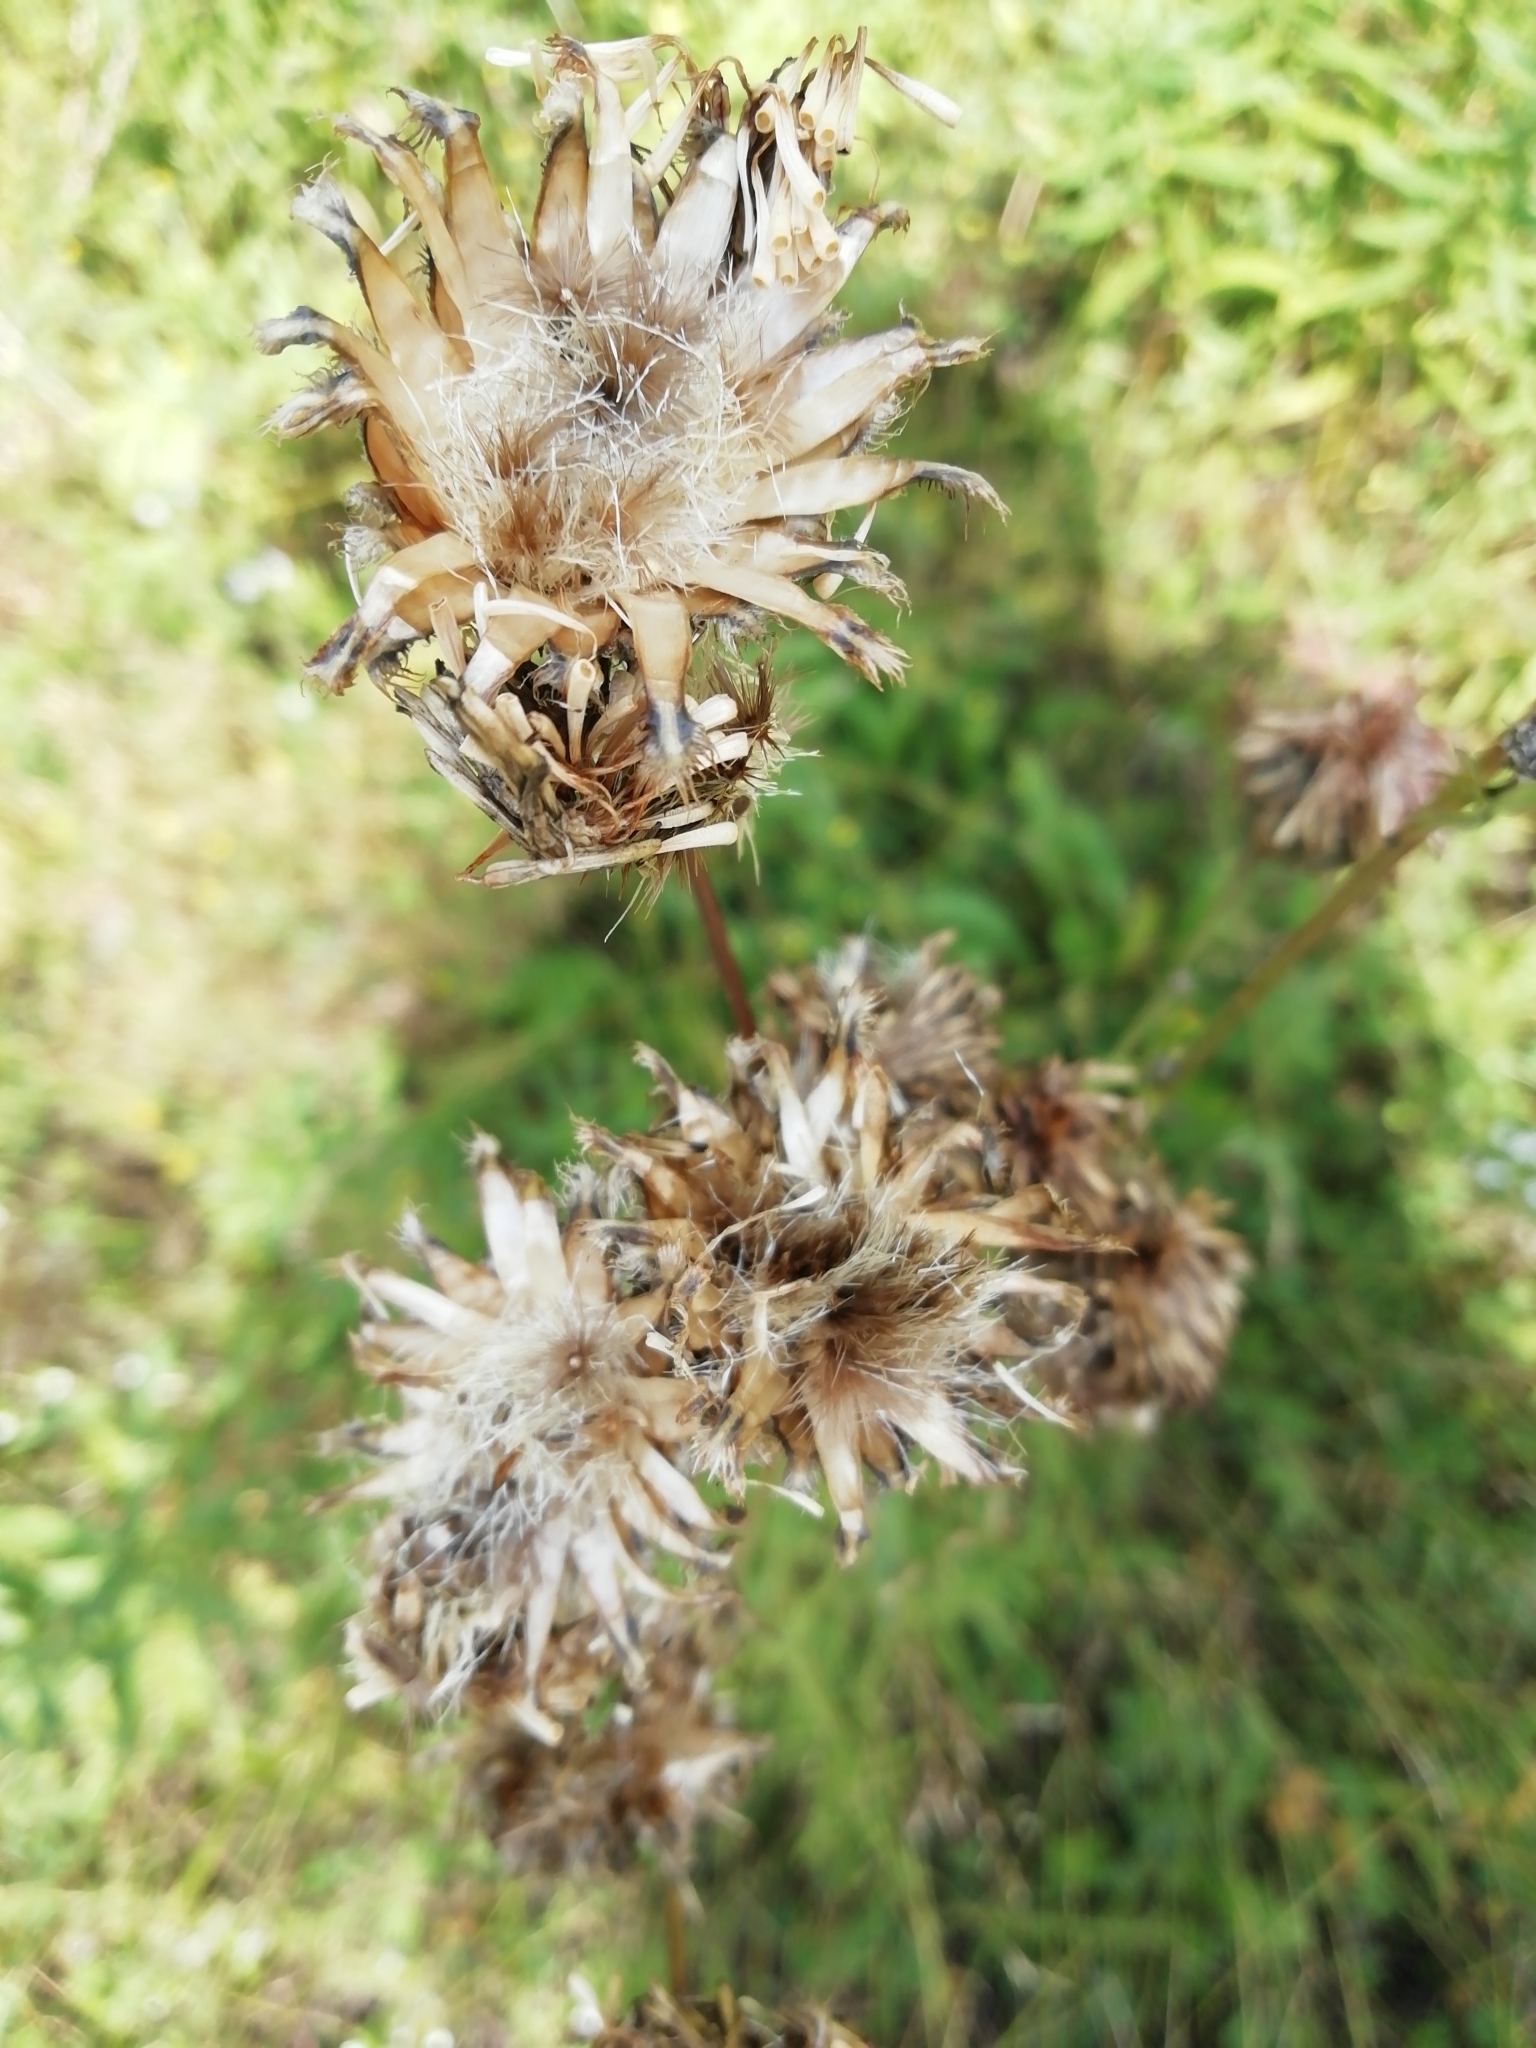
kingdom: Plantae
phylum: Tracheophyta
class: Magnoliopsida
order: Asterales
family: Asteraceae
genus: Centaurea
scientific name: Centaurea scabiosa
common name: Greater knapweed
